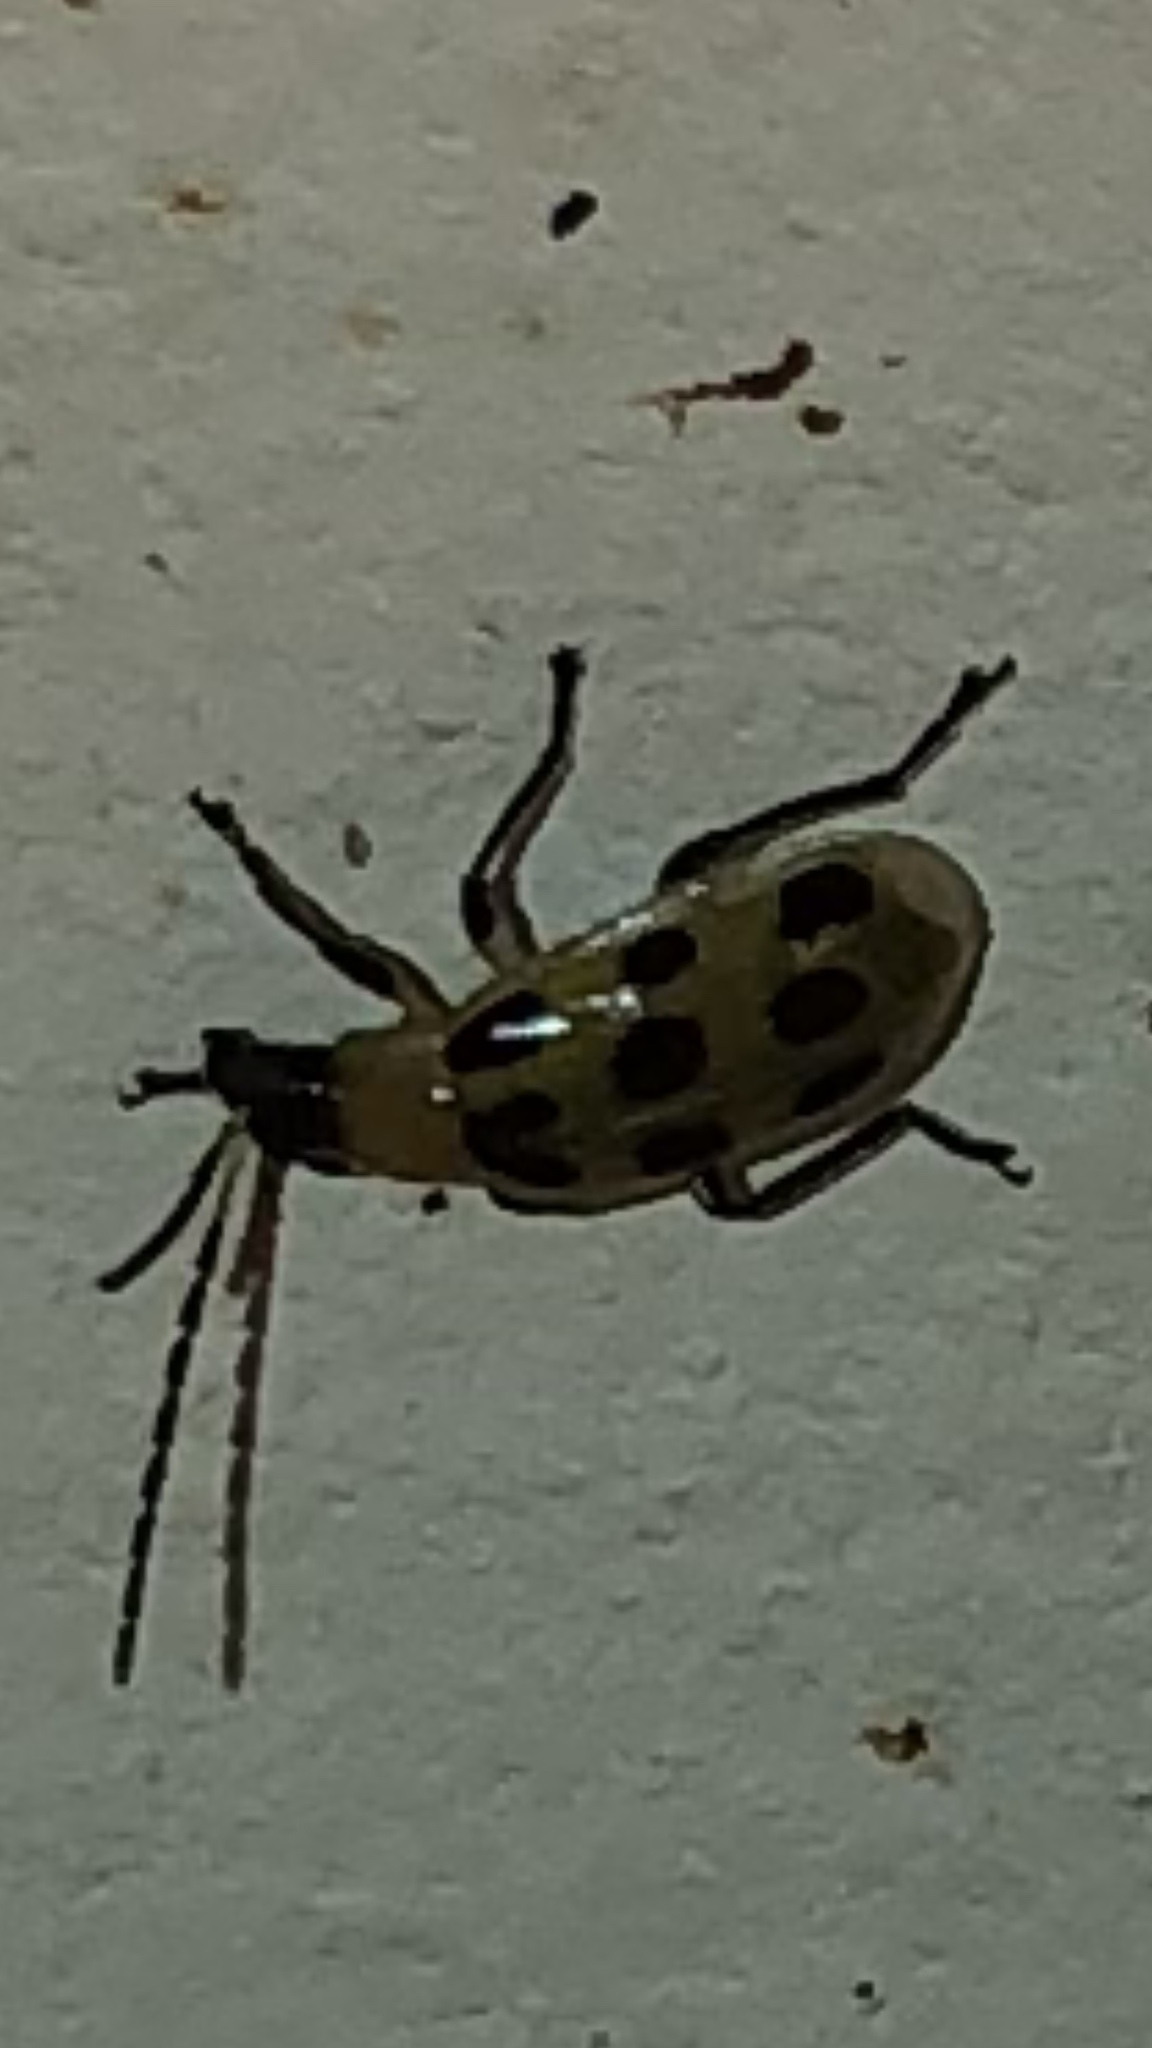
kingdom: Animalia
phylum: Arthropoda
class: Insecta
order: Coleoptera
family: Chrysomelidae
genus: Diabrotica
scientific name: Diabrotica undecimpunctata
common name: Spotted cucumber beetle
